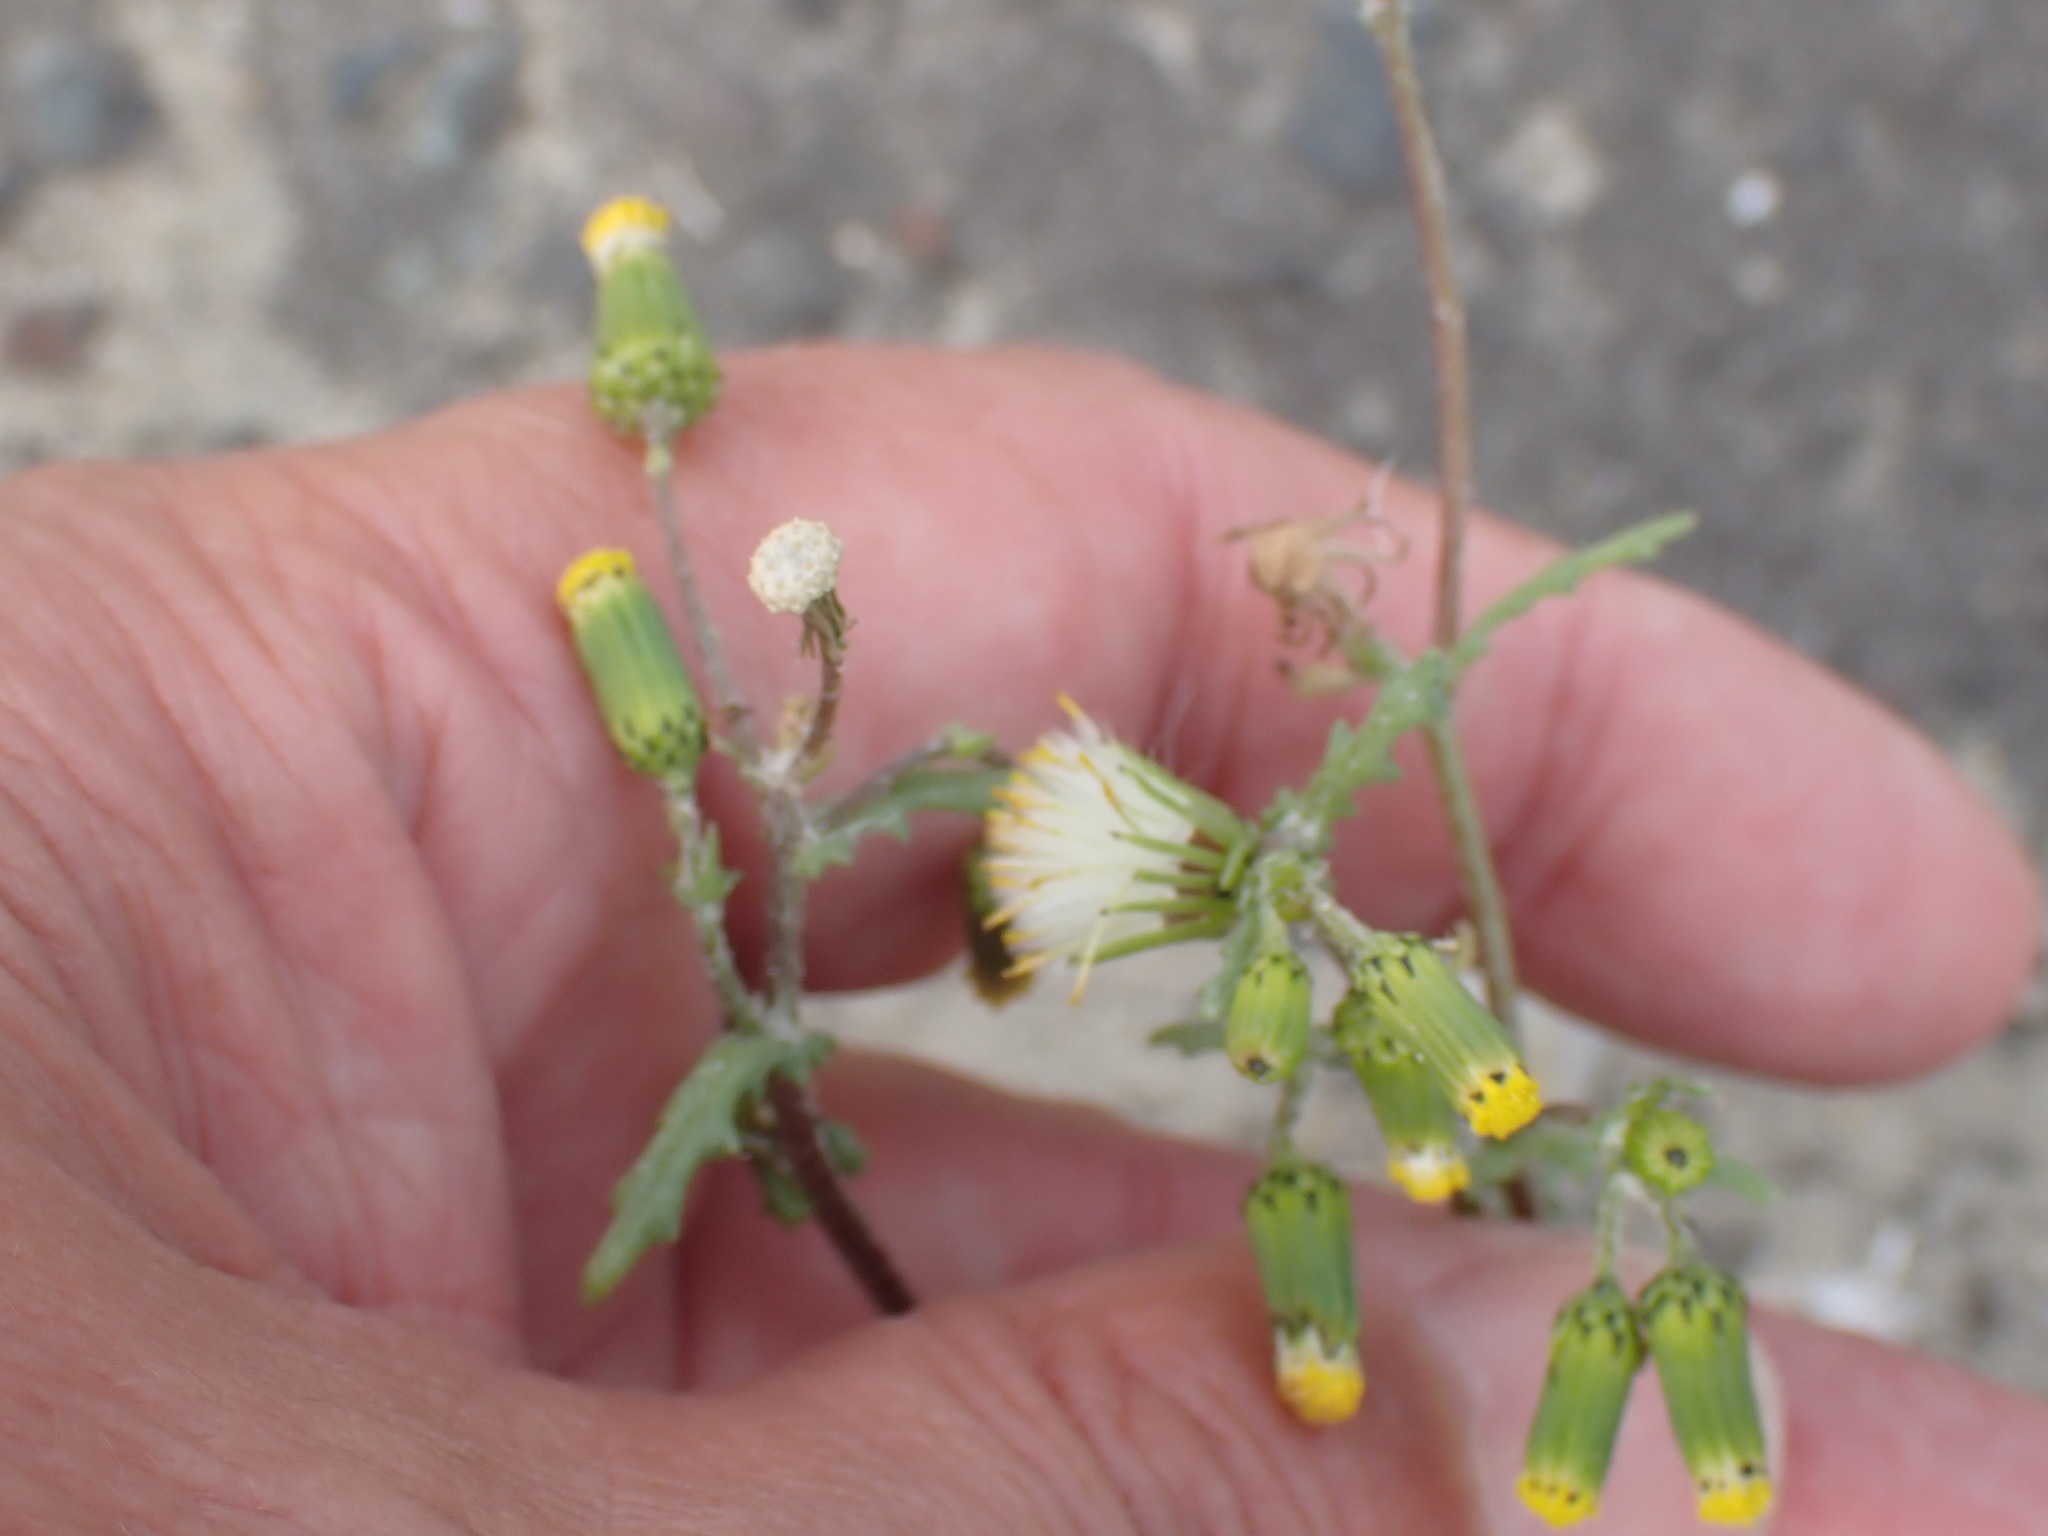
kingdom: Plantae
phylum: Tracheophyta
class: Magnoliopsida
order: Asterales
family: Asteraceae
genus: Senecio
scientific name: Senecio vulgaris
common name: Old-man-in-the-spring
